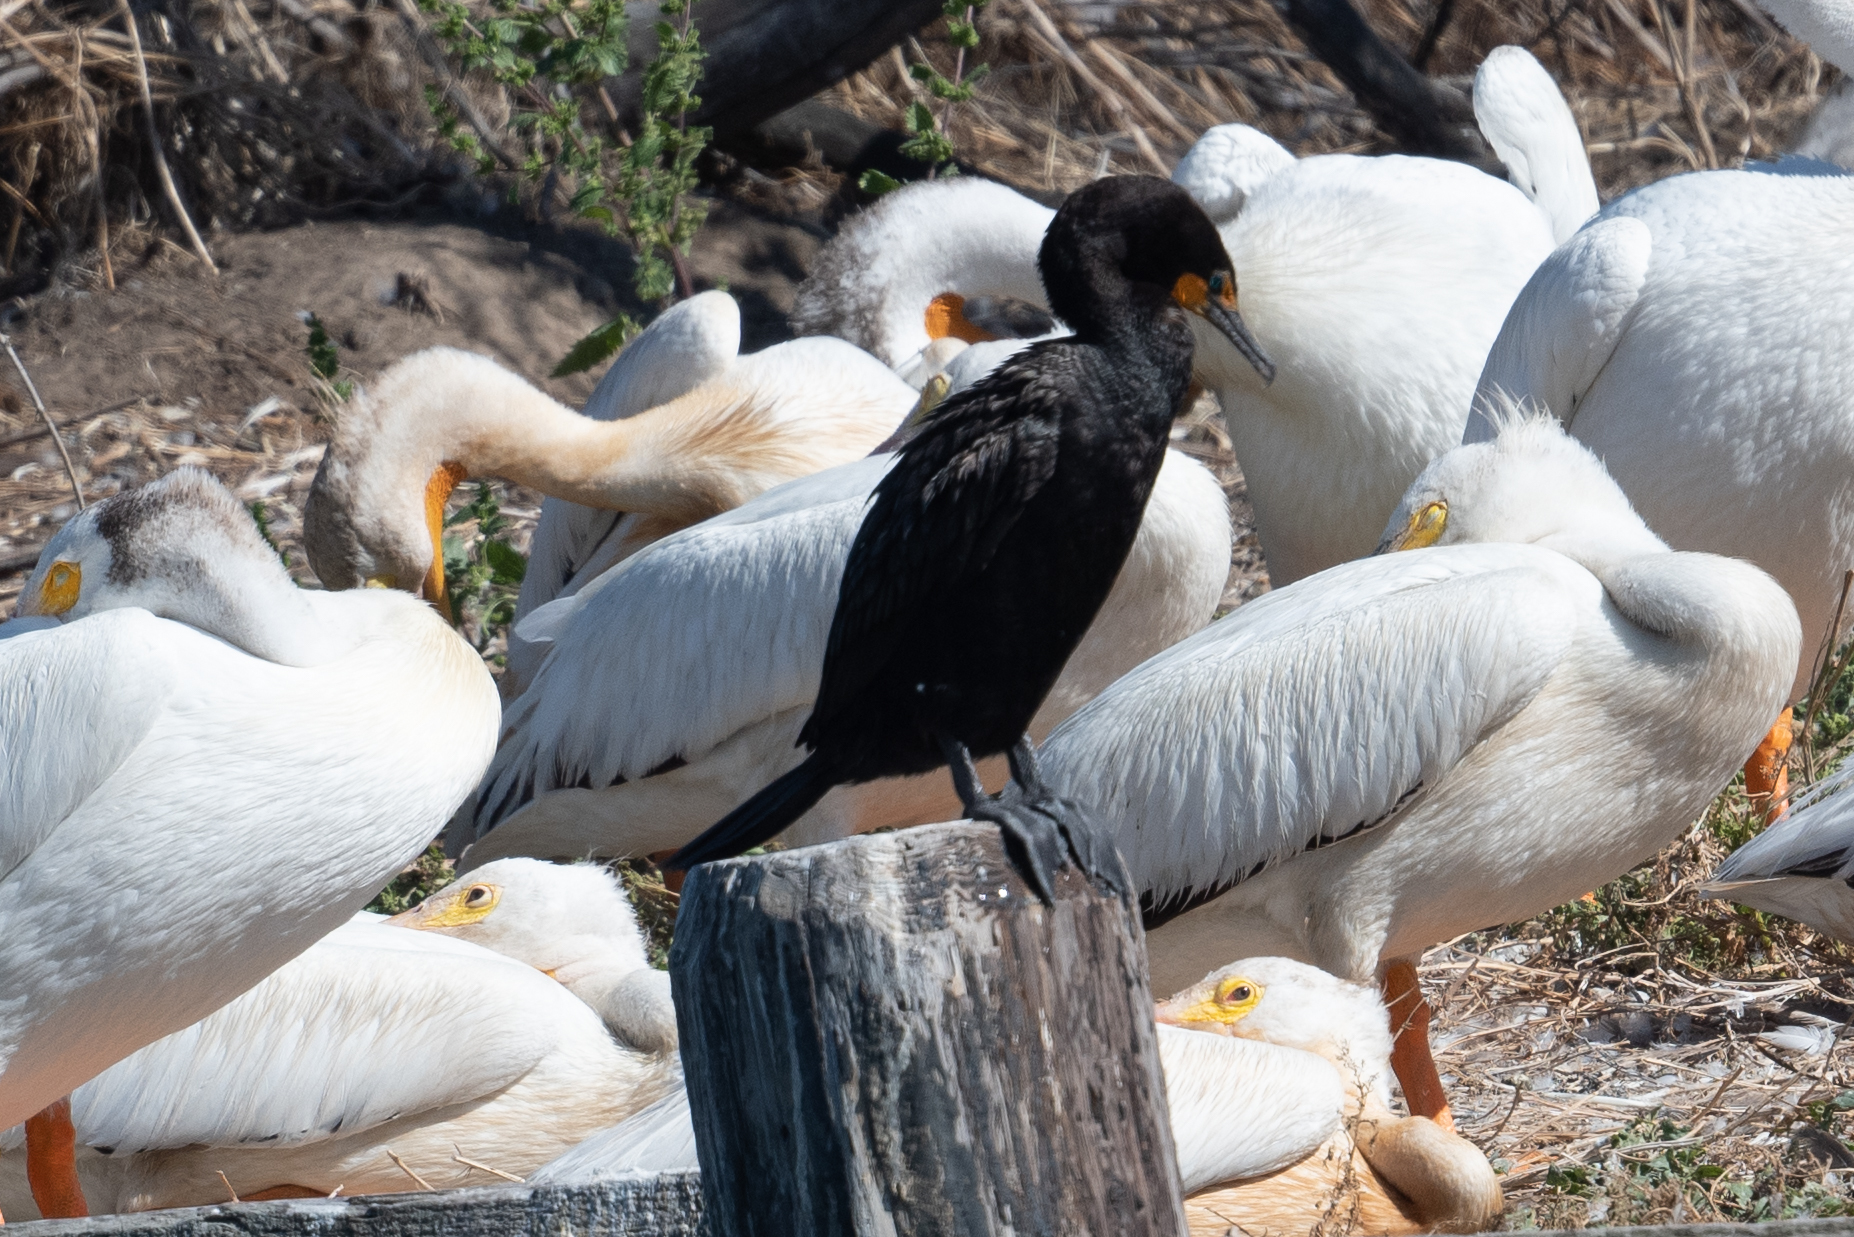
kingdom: Animalia
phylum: Chordata
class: Aves
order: Suliformes
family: Phalacrocoracidae
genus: Phalacrocorax
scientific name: Phalacrocorax auritus
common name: Double-crested cormorant
